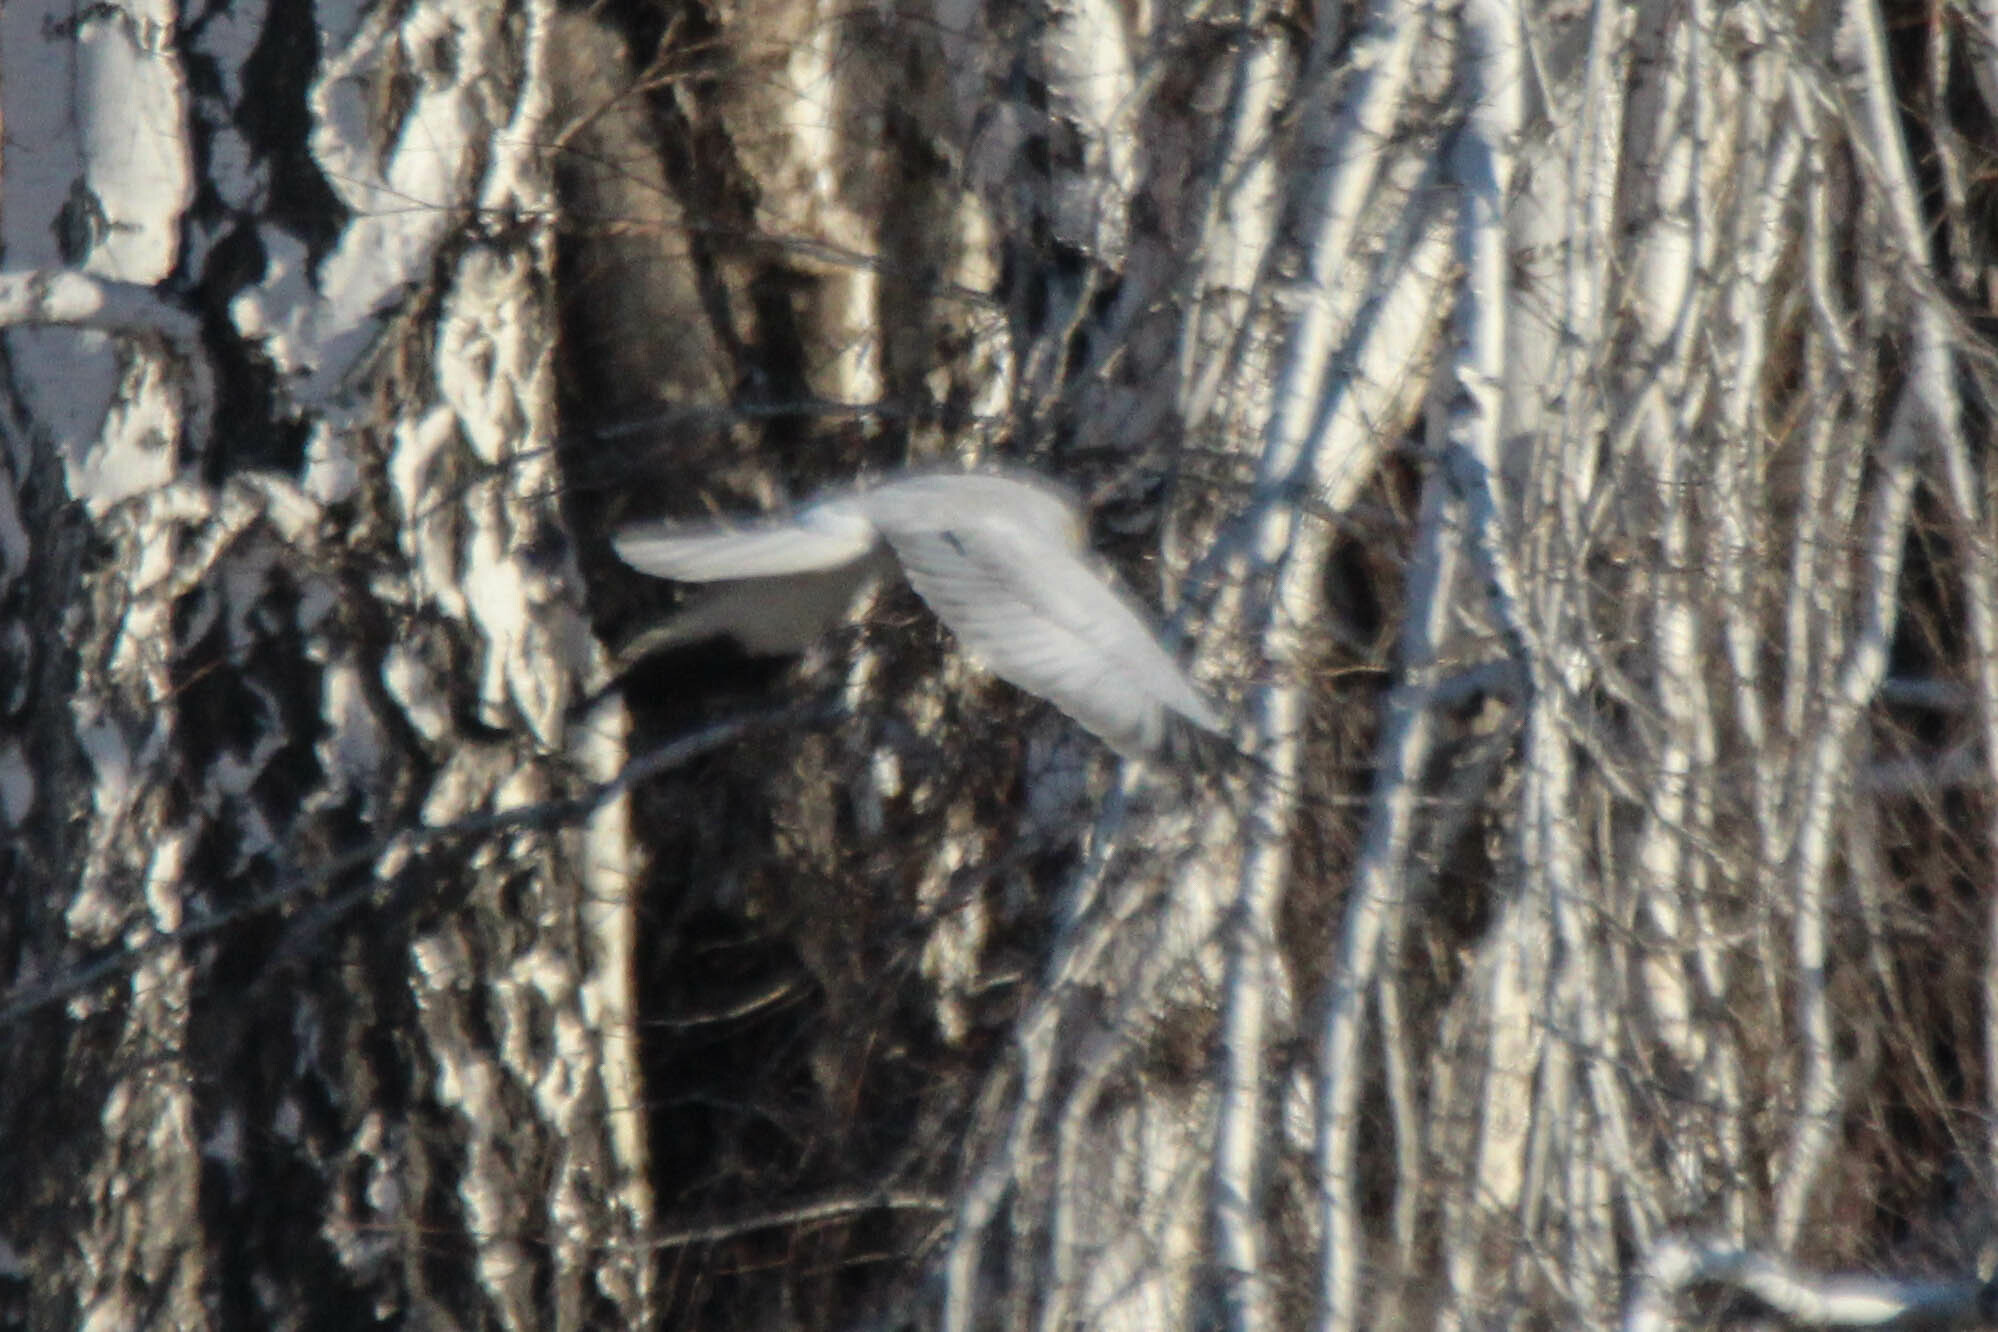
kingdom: Animalia
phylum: Chordata
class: Aves
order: Accipitriformes
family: Accipitridae
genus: Circus
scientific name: Circus cyaneus
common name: Hen harrier
